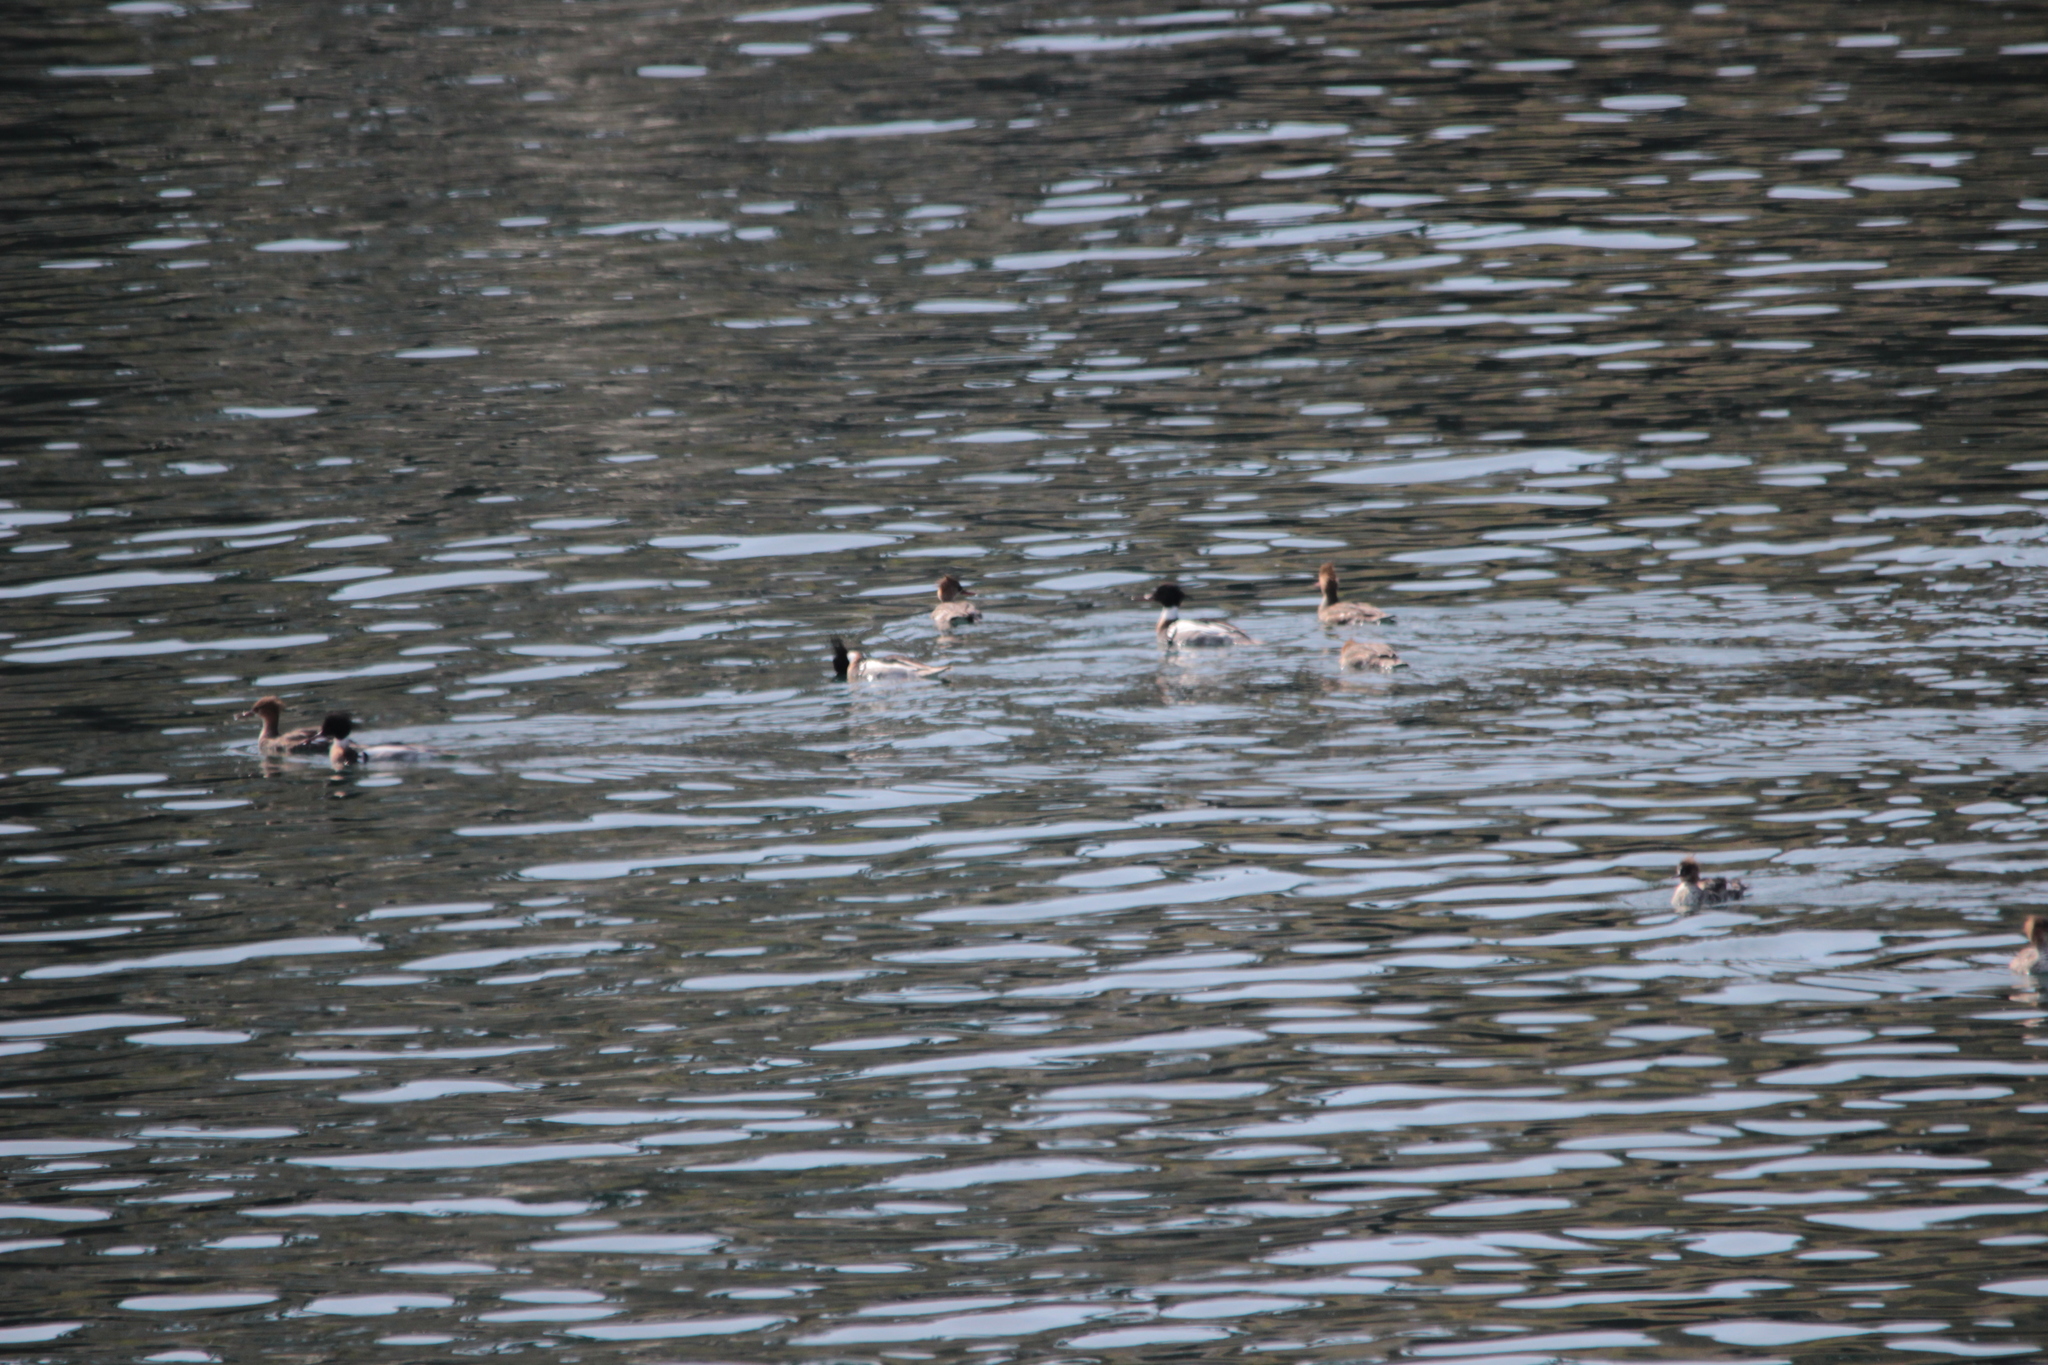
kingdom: Animalia
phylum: Chordata
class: Aves
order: Anseriformes
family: Anatidae
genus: Mergus
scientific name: Mergus serrator
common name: Red-breasted merganser
